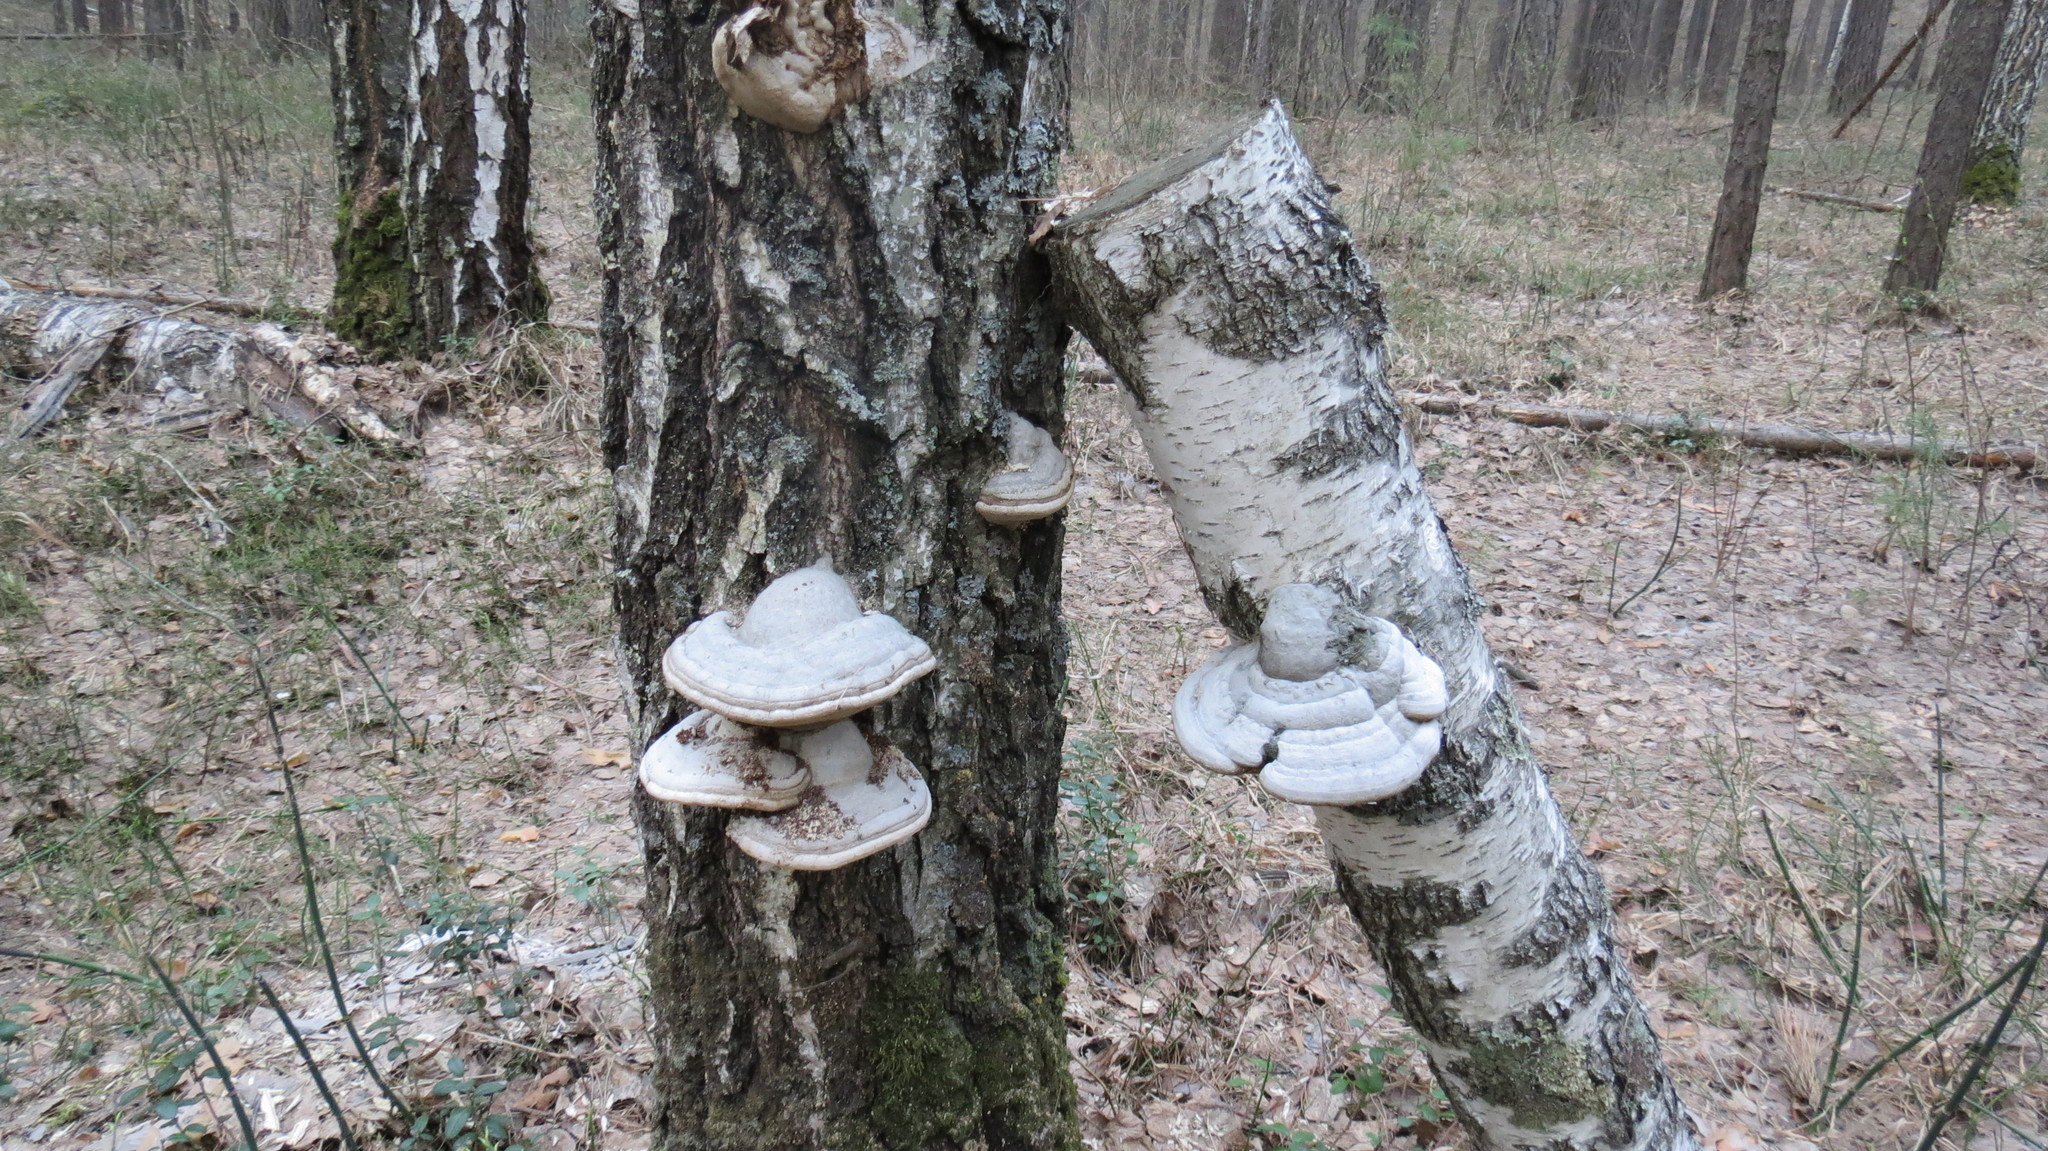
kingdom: Fungi
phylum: Basidiomycota
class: Agaricomycetes
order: Polyporales
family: Polyporaceae
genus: Fomes
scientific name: Fomes fomentarius
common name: Hoof fungus
